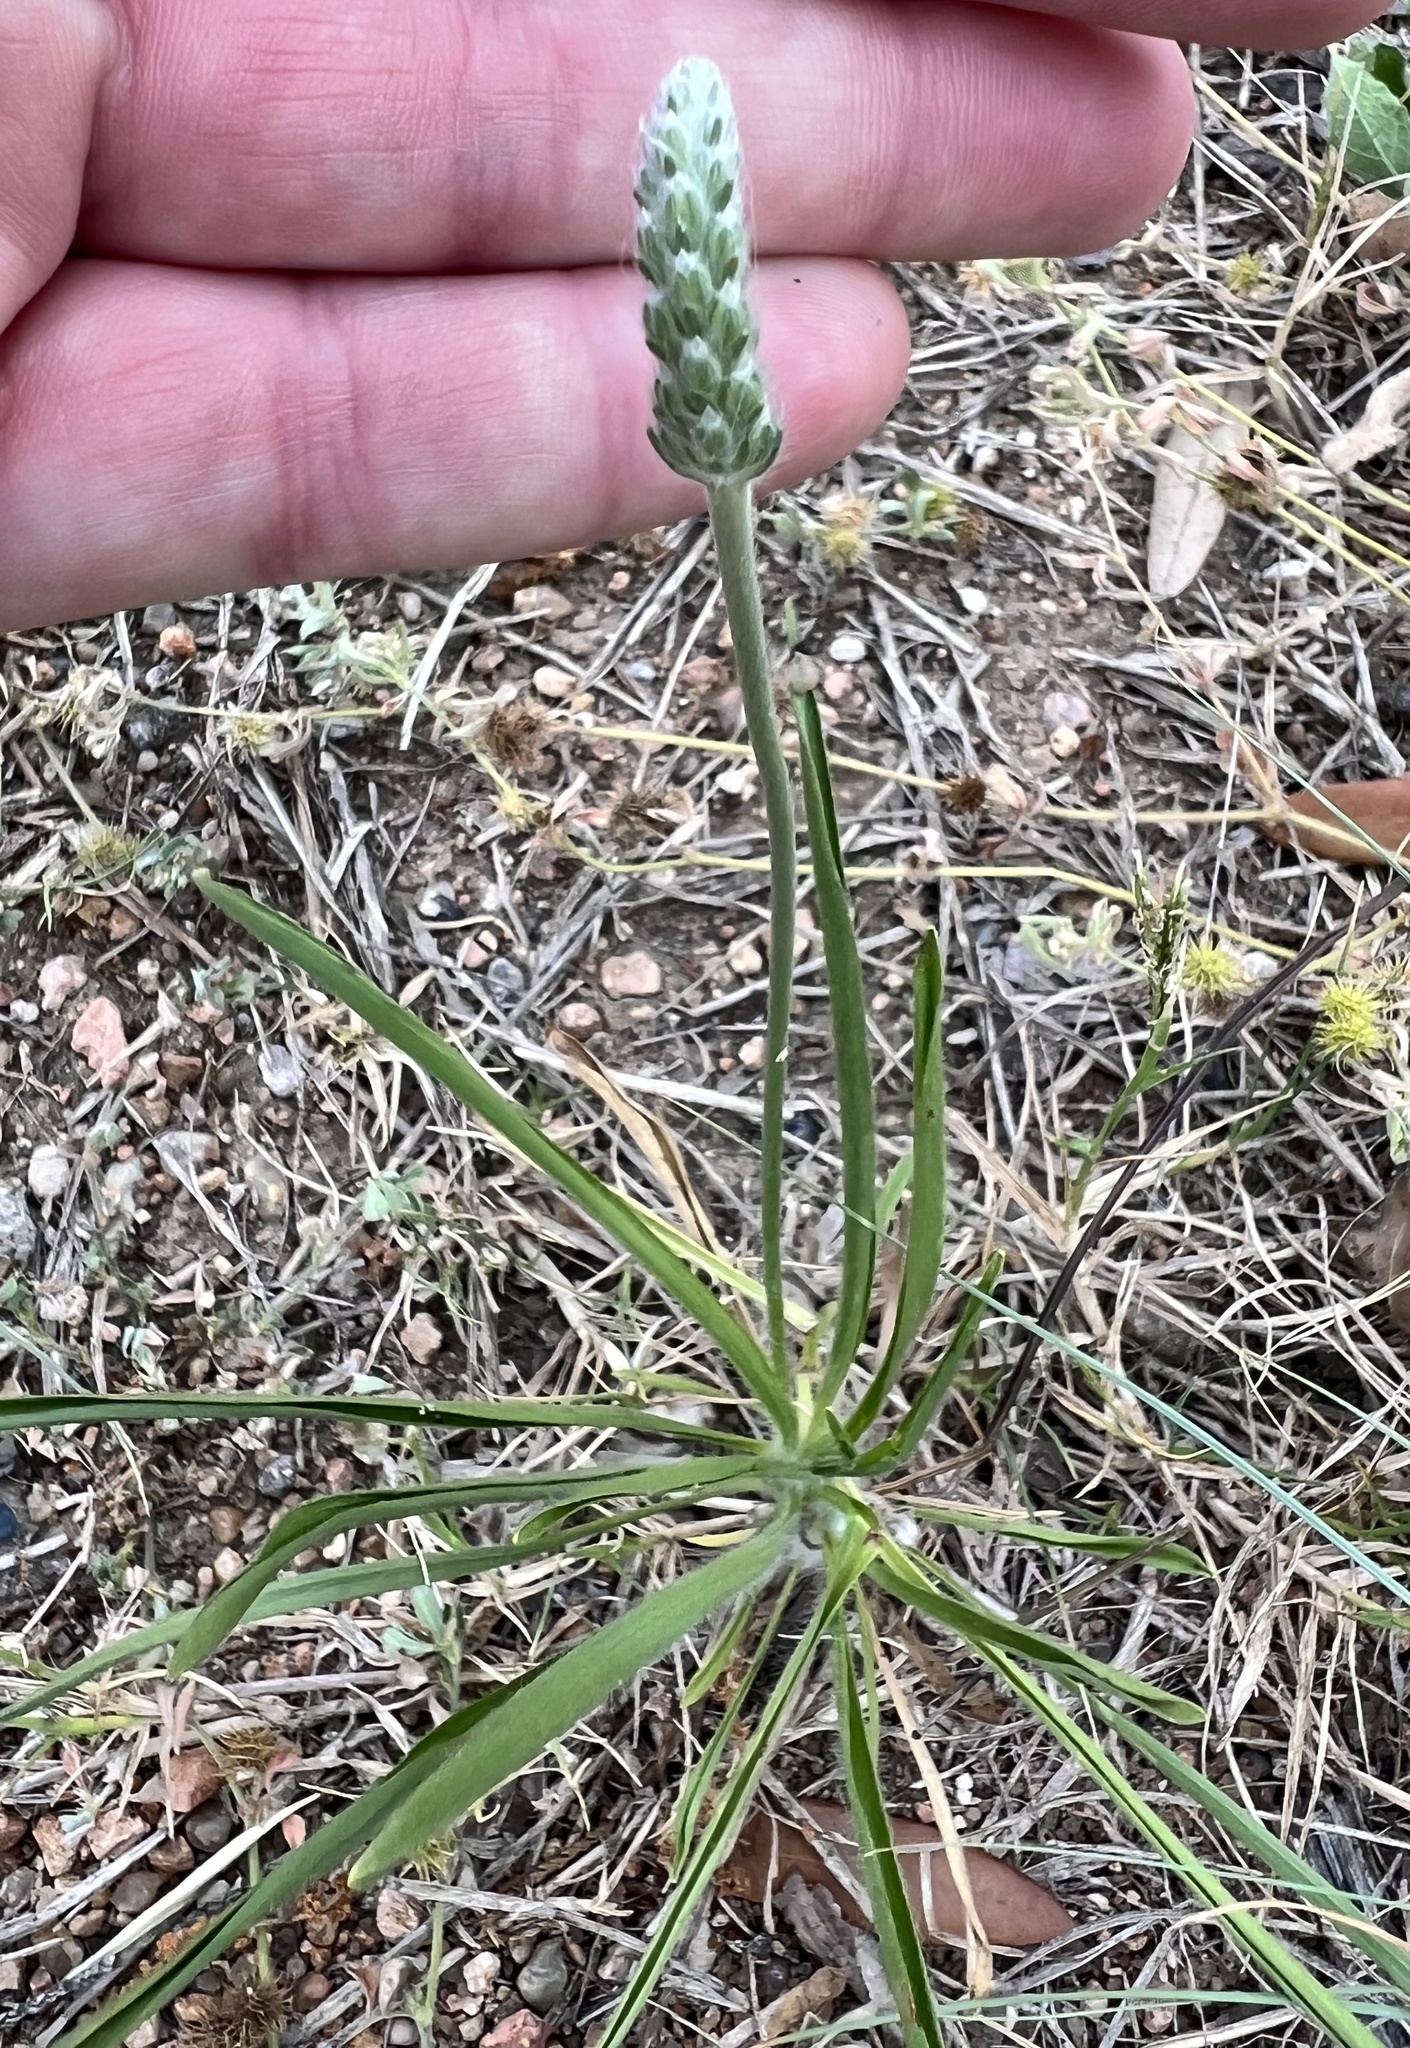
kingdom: Plantae
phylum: Tracheophyta
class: Magnoliopsida
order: Lamiales
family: Plantaginaceae
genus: Plantago
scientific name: Plantago wrightiana
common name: Wright's plantain
